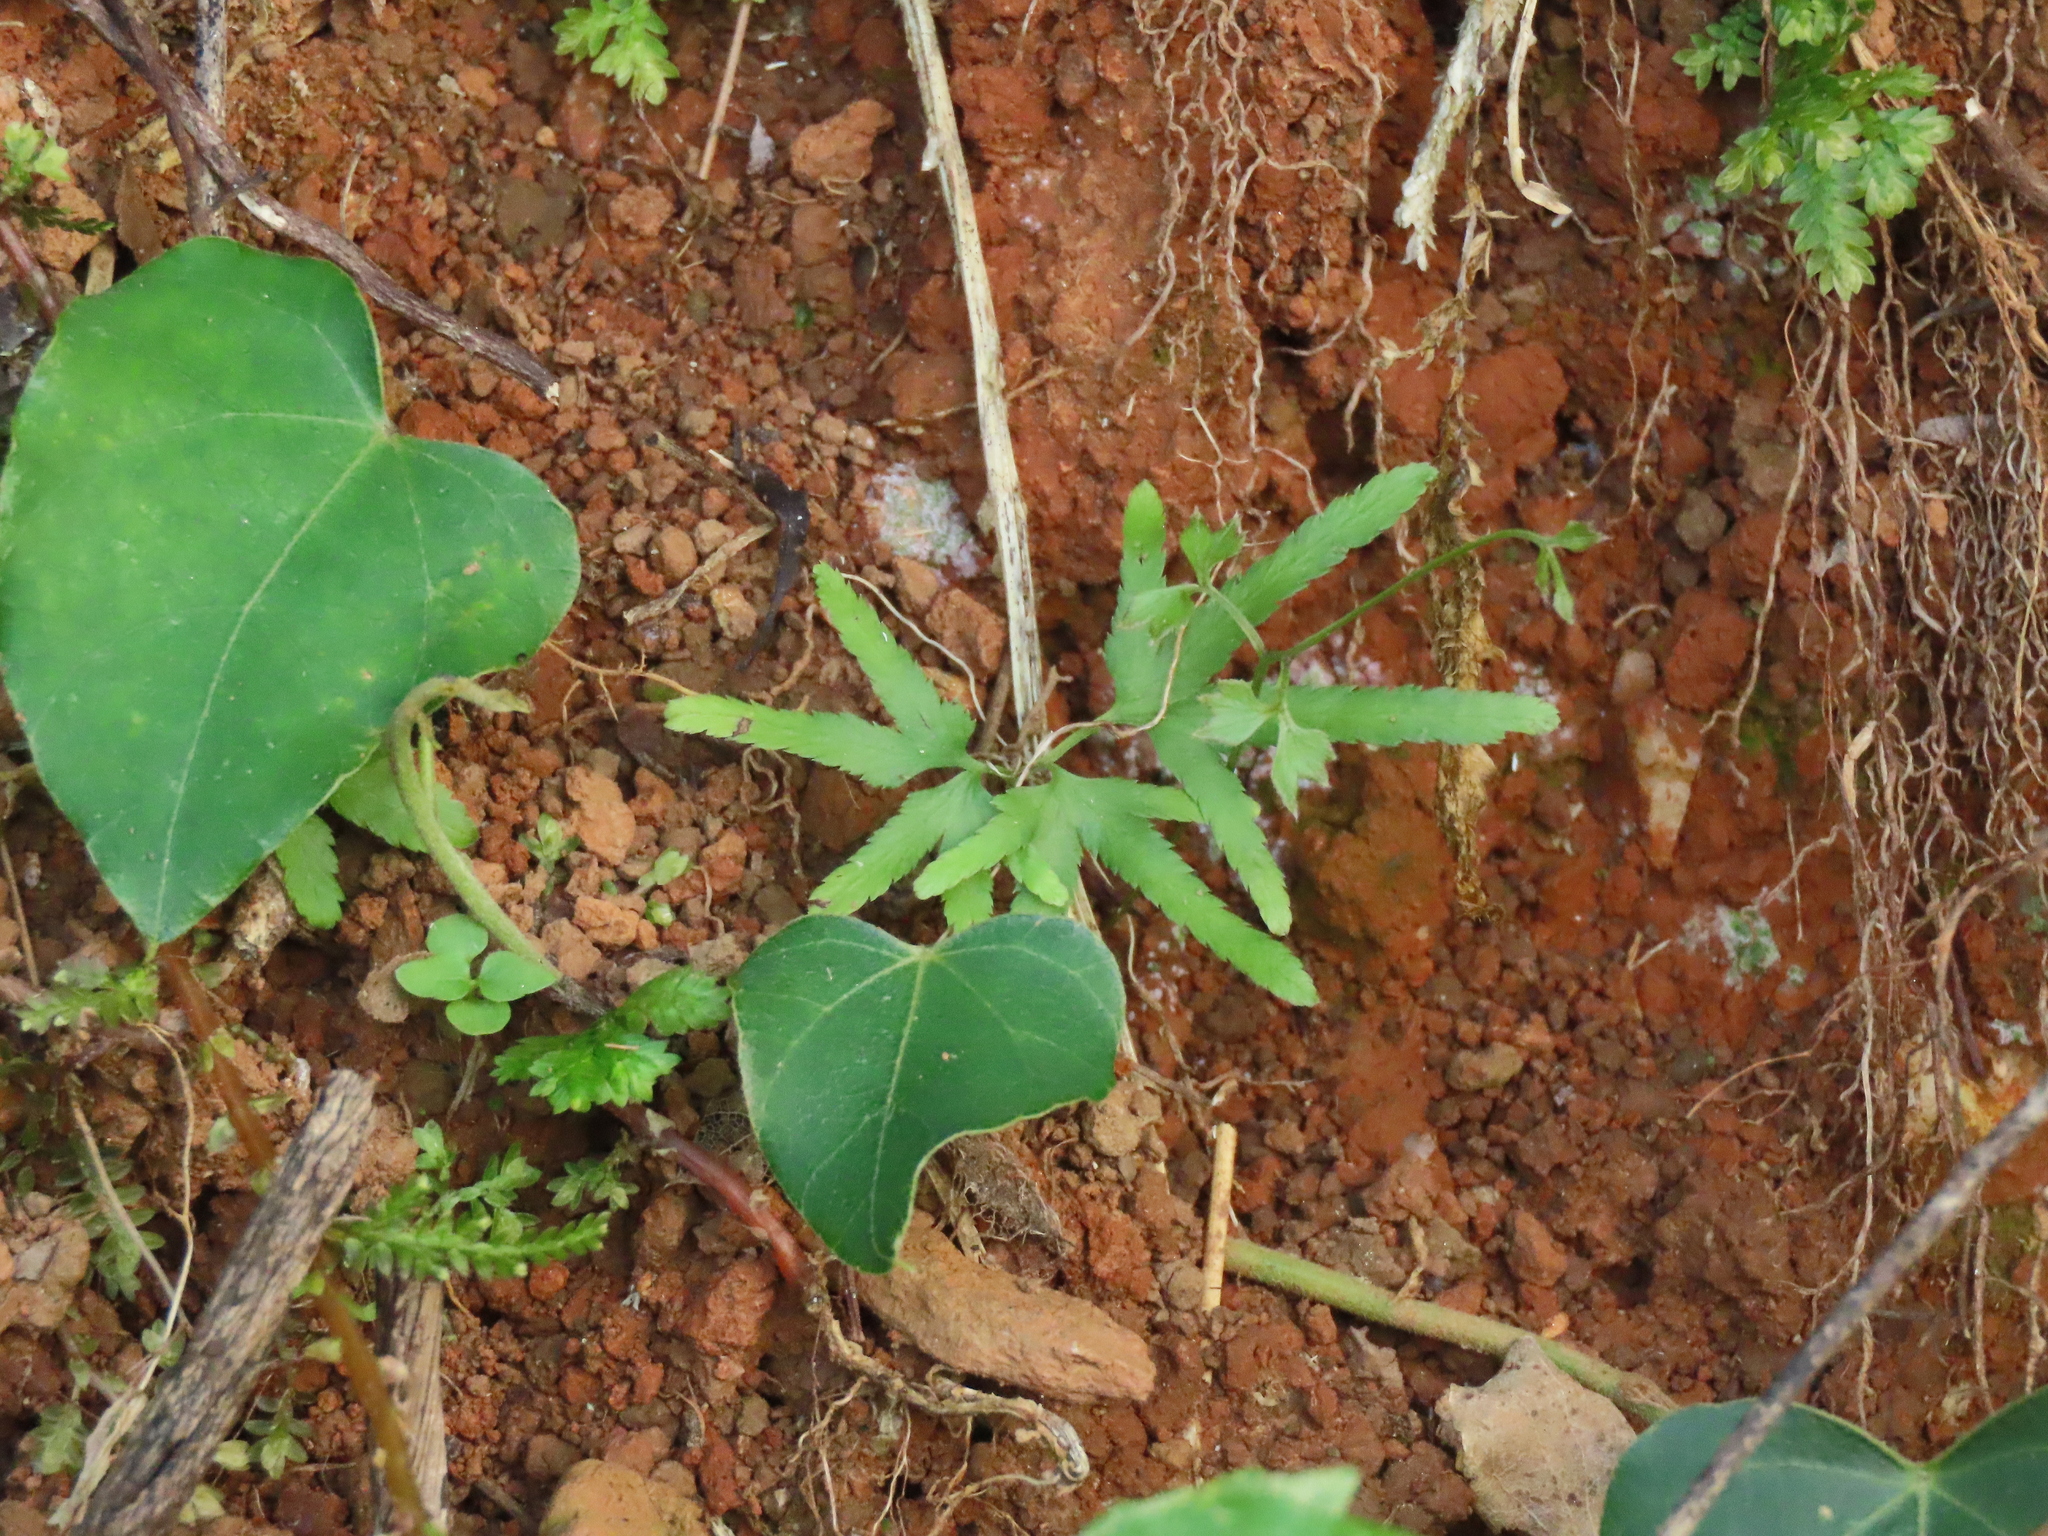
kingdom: Plantae
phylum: Tracheophyta
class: Polypodiopsida
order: Schizaeales
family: Lygodiaceae
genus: Lygodium
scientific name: Lygodium japonicum
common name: Japanese climbing fern
